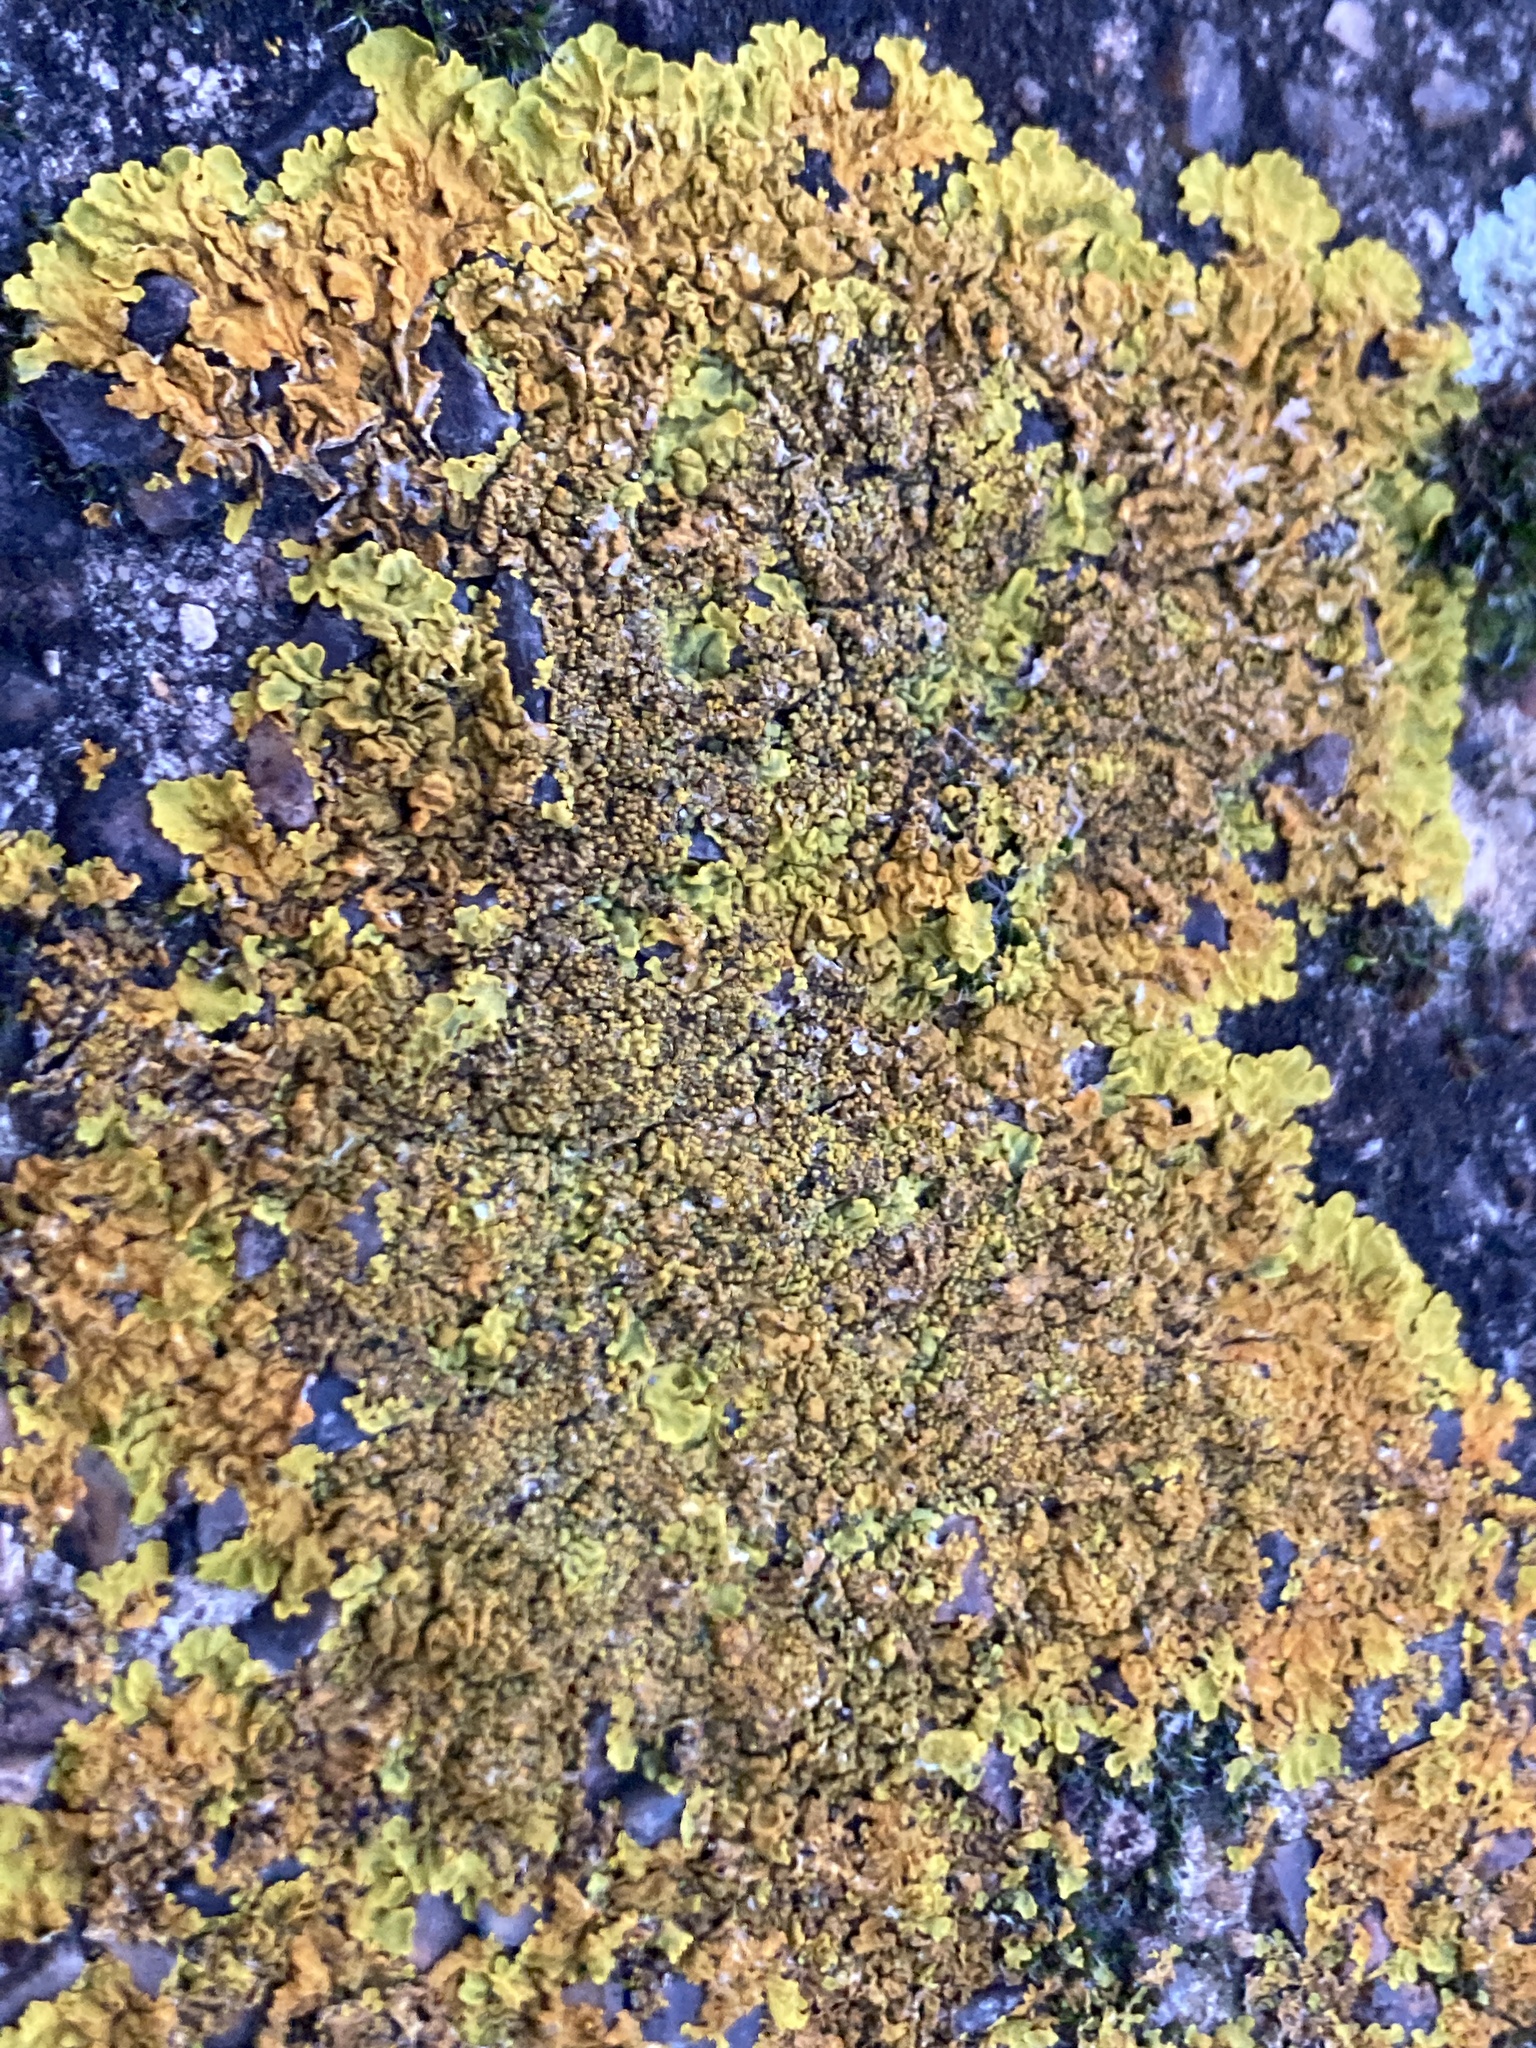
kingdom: Fungi
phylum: Ascomycota
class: Lecanoromycetes
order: Teloschistales
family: Teloschistaceae
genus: Xanthoria
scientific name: Xanthoria calcicola
